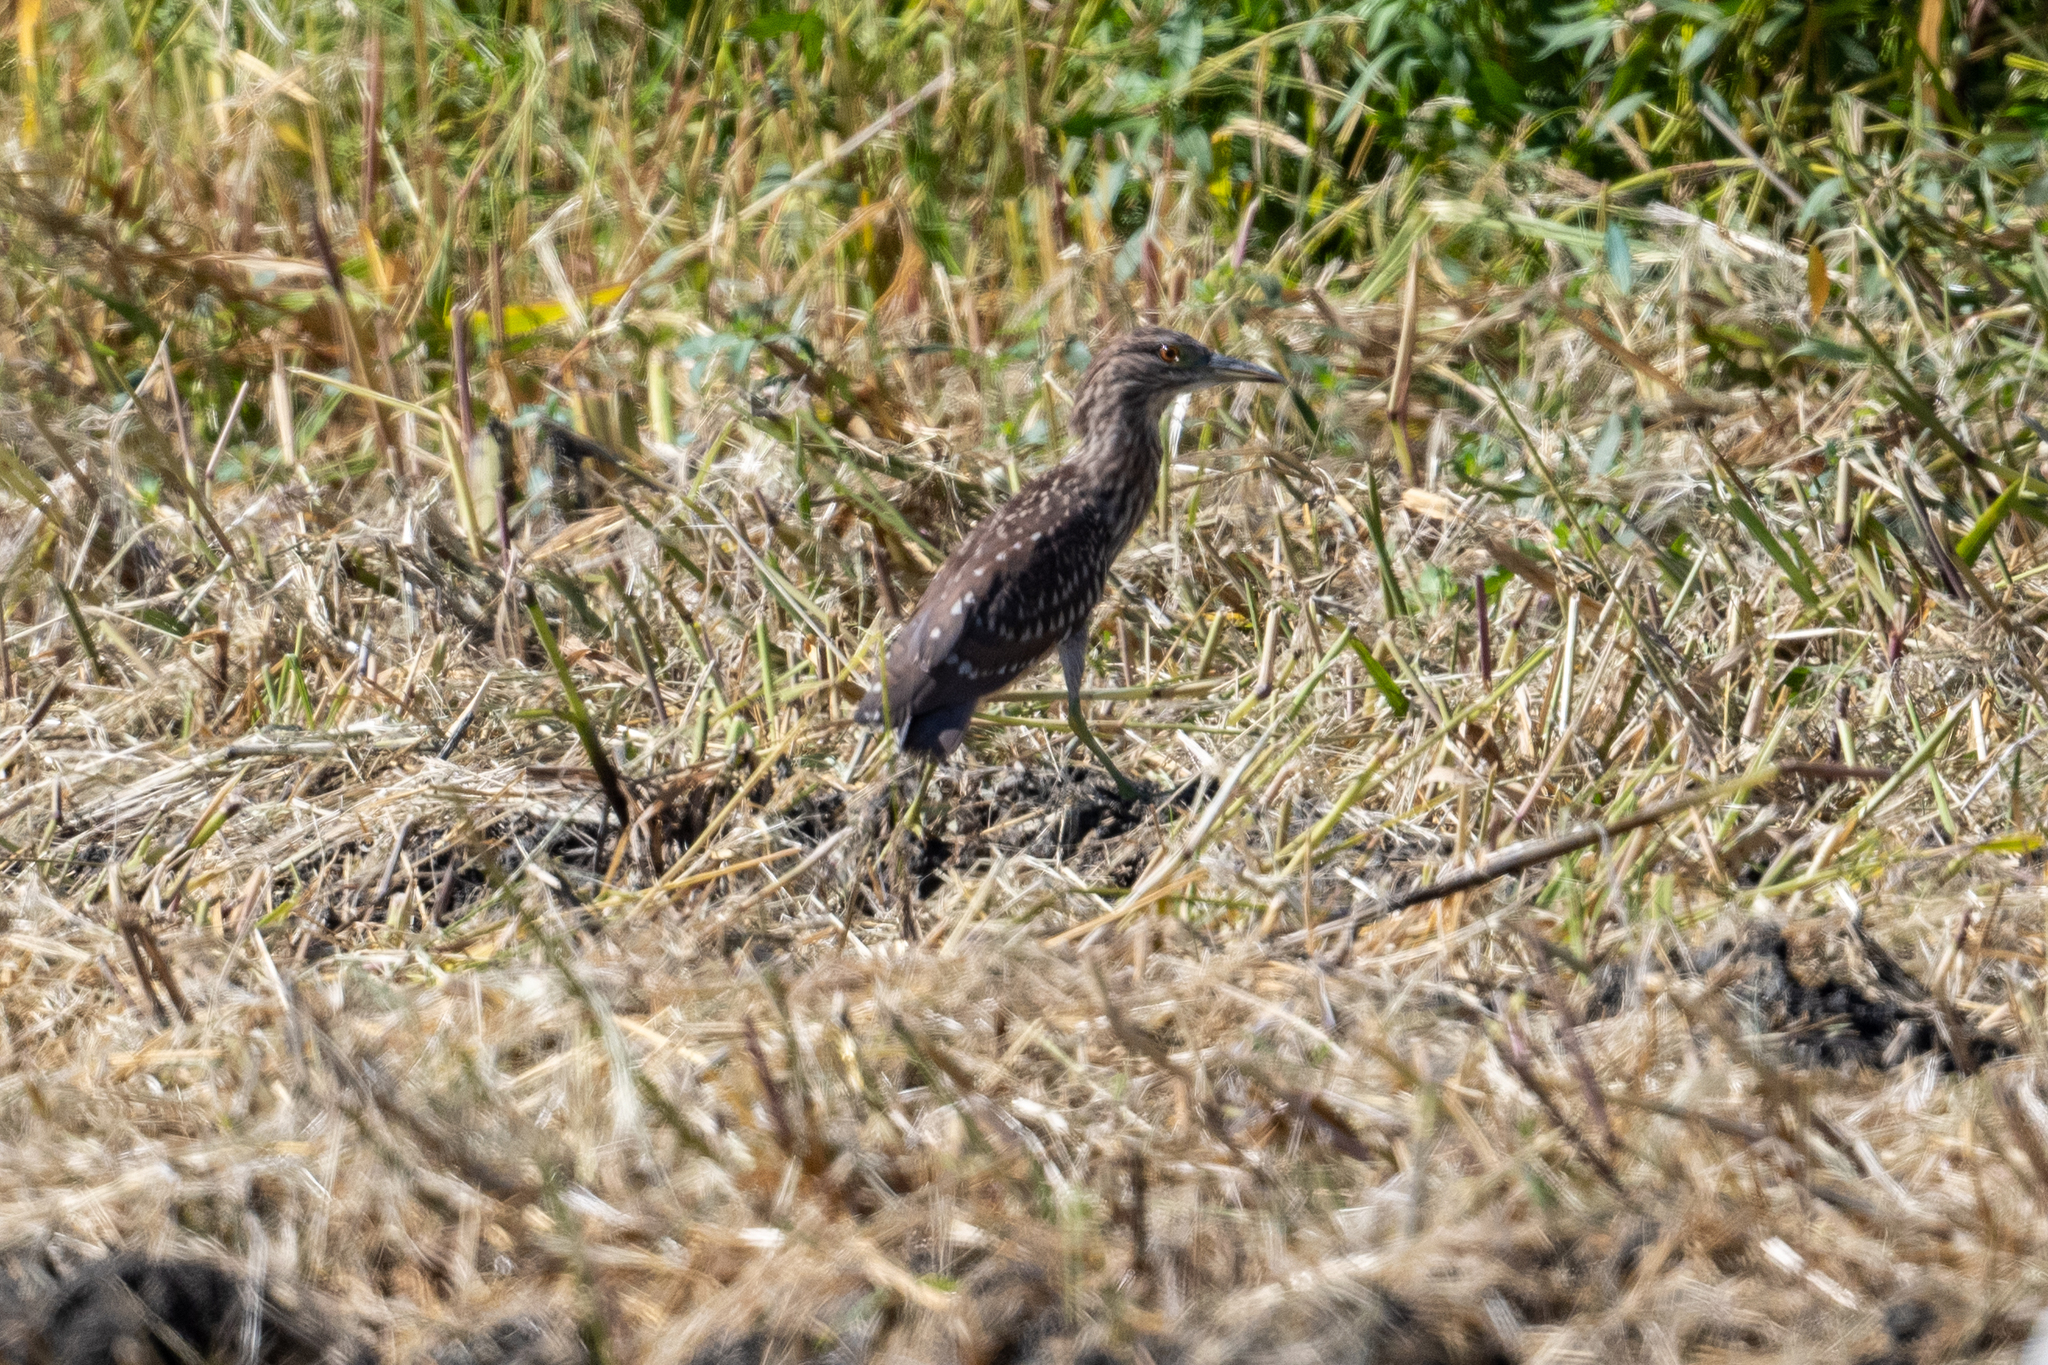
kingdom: Animalia
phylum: Chordata
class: Aves
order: Pelecaniformes
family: Ardeidae
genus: Nycticorax
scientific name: Nycticorax nycticorax
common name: Black-crowned night heron
